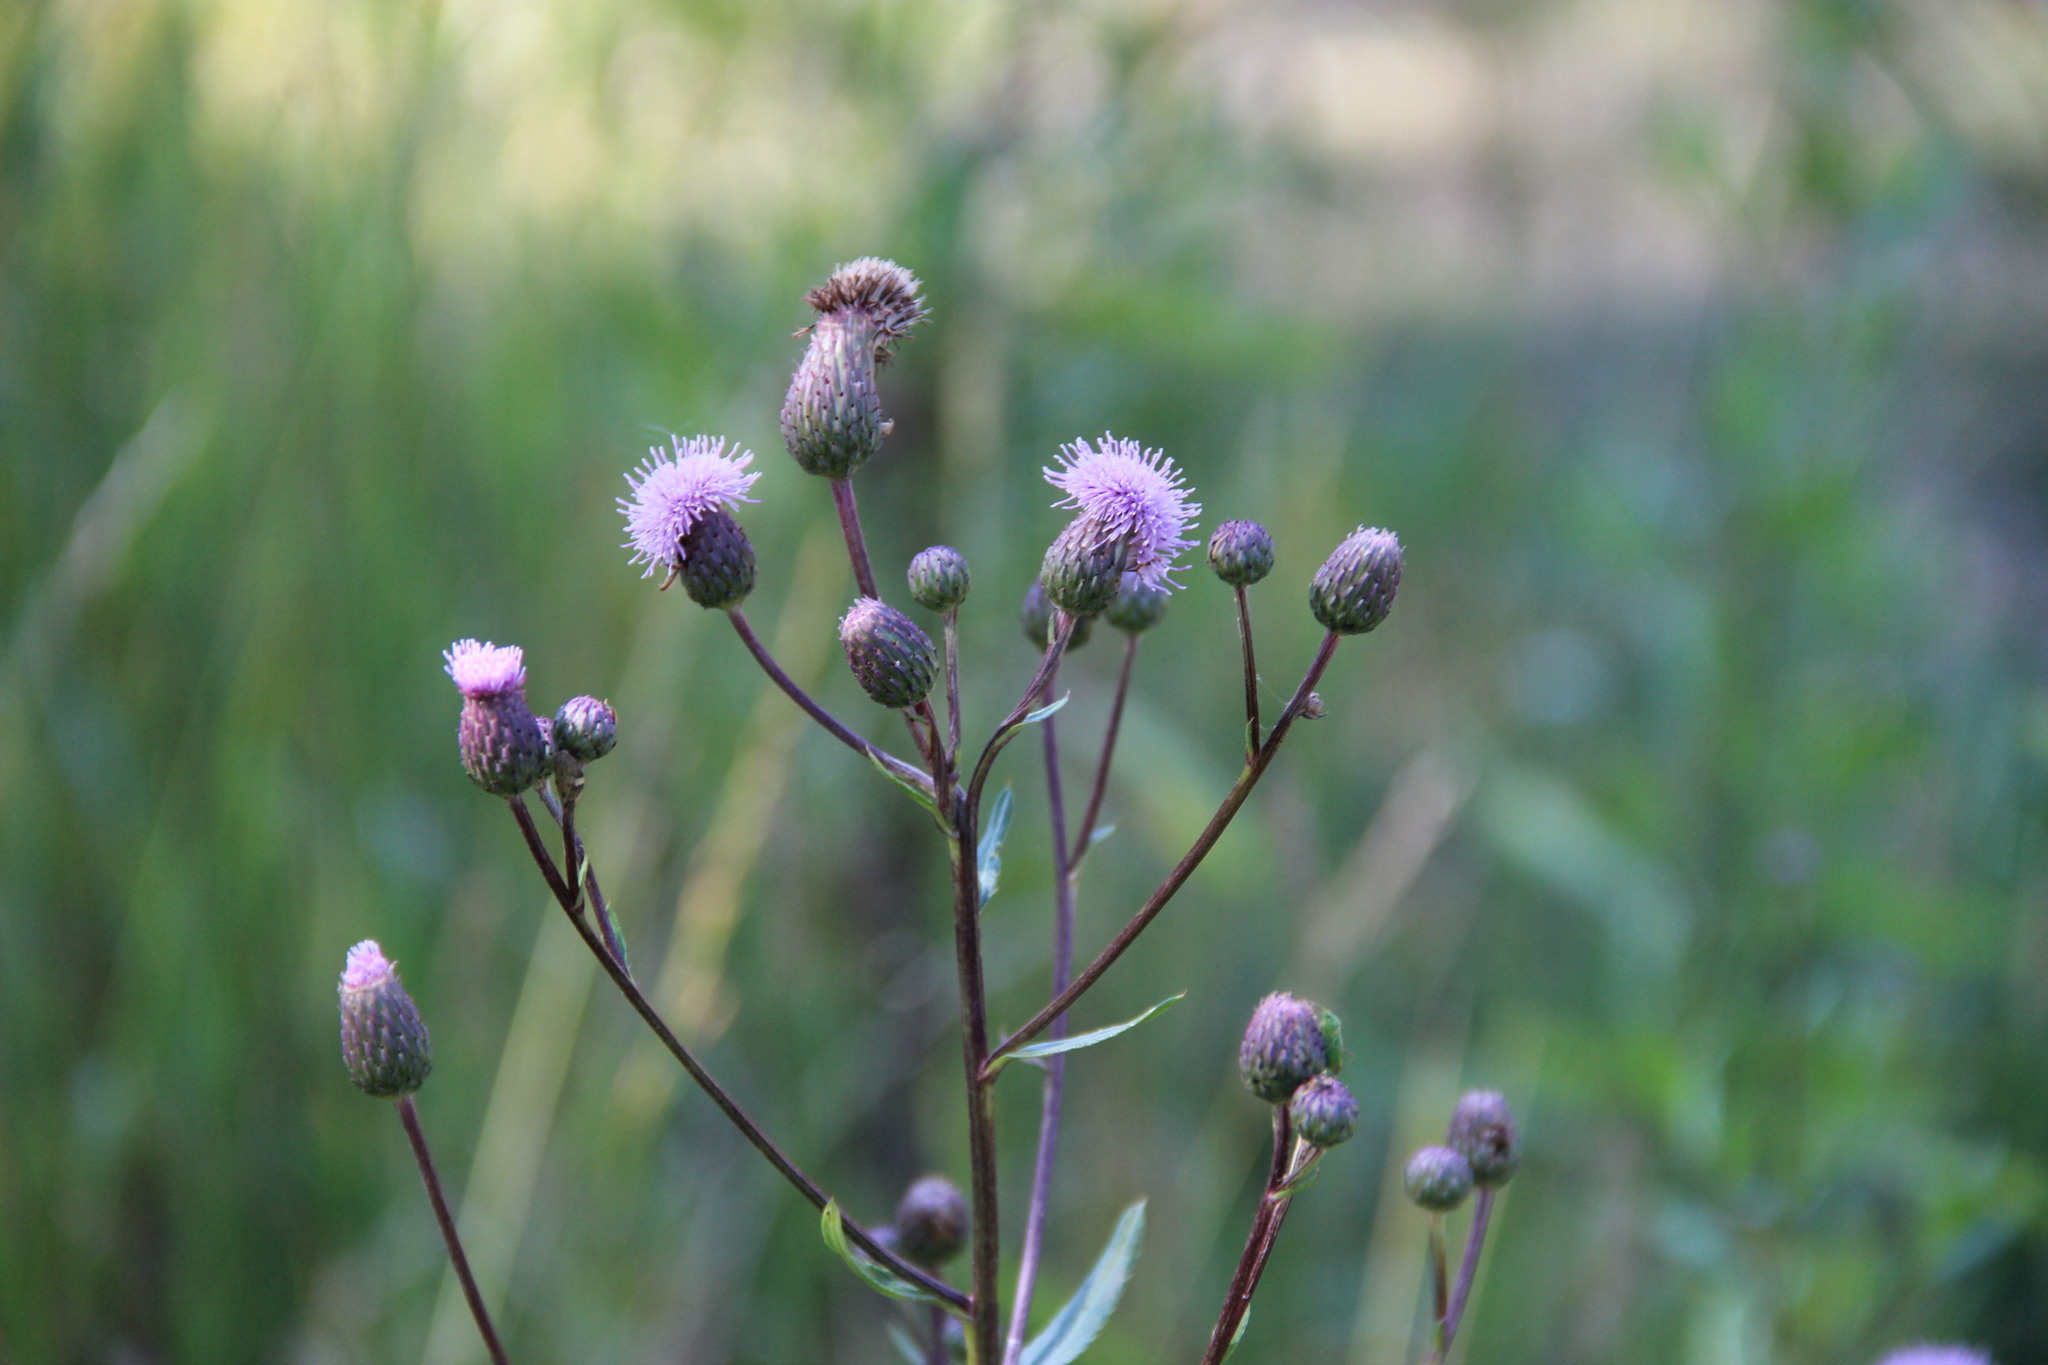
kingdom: Plantae
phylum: Tracheophyta
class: Magnoliopsida
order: Asterales
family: Asteraceae
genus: Cirsium
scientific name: Cirsium arvense
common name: Creeping thistle
